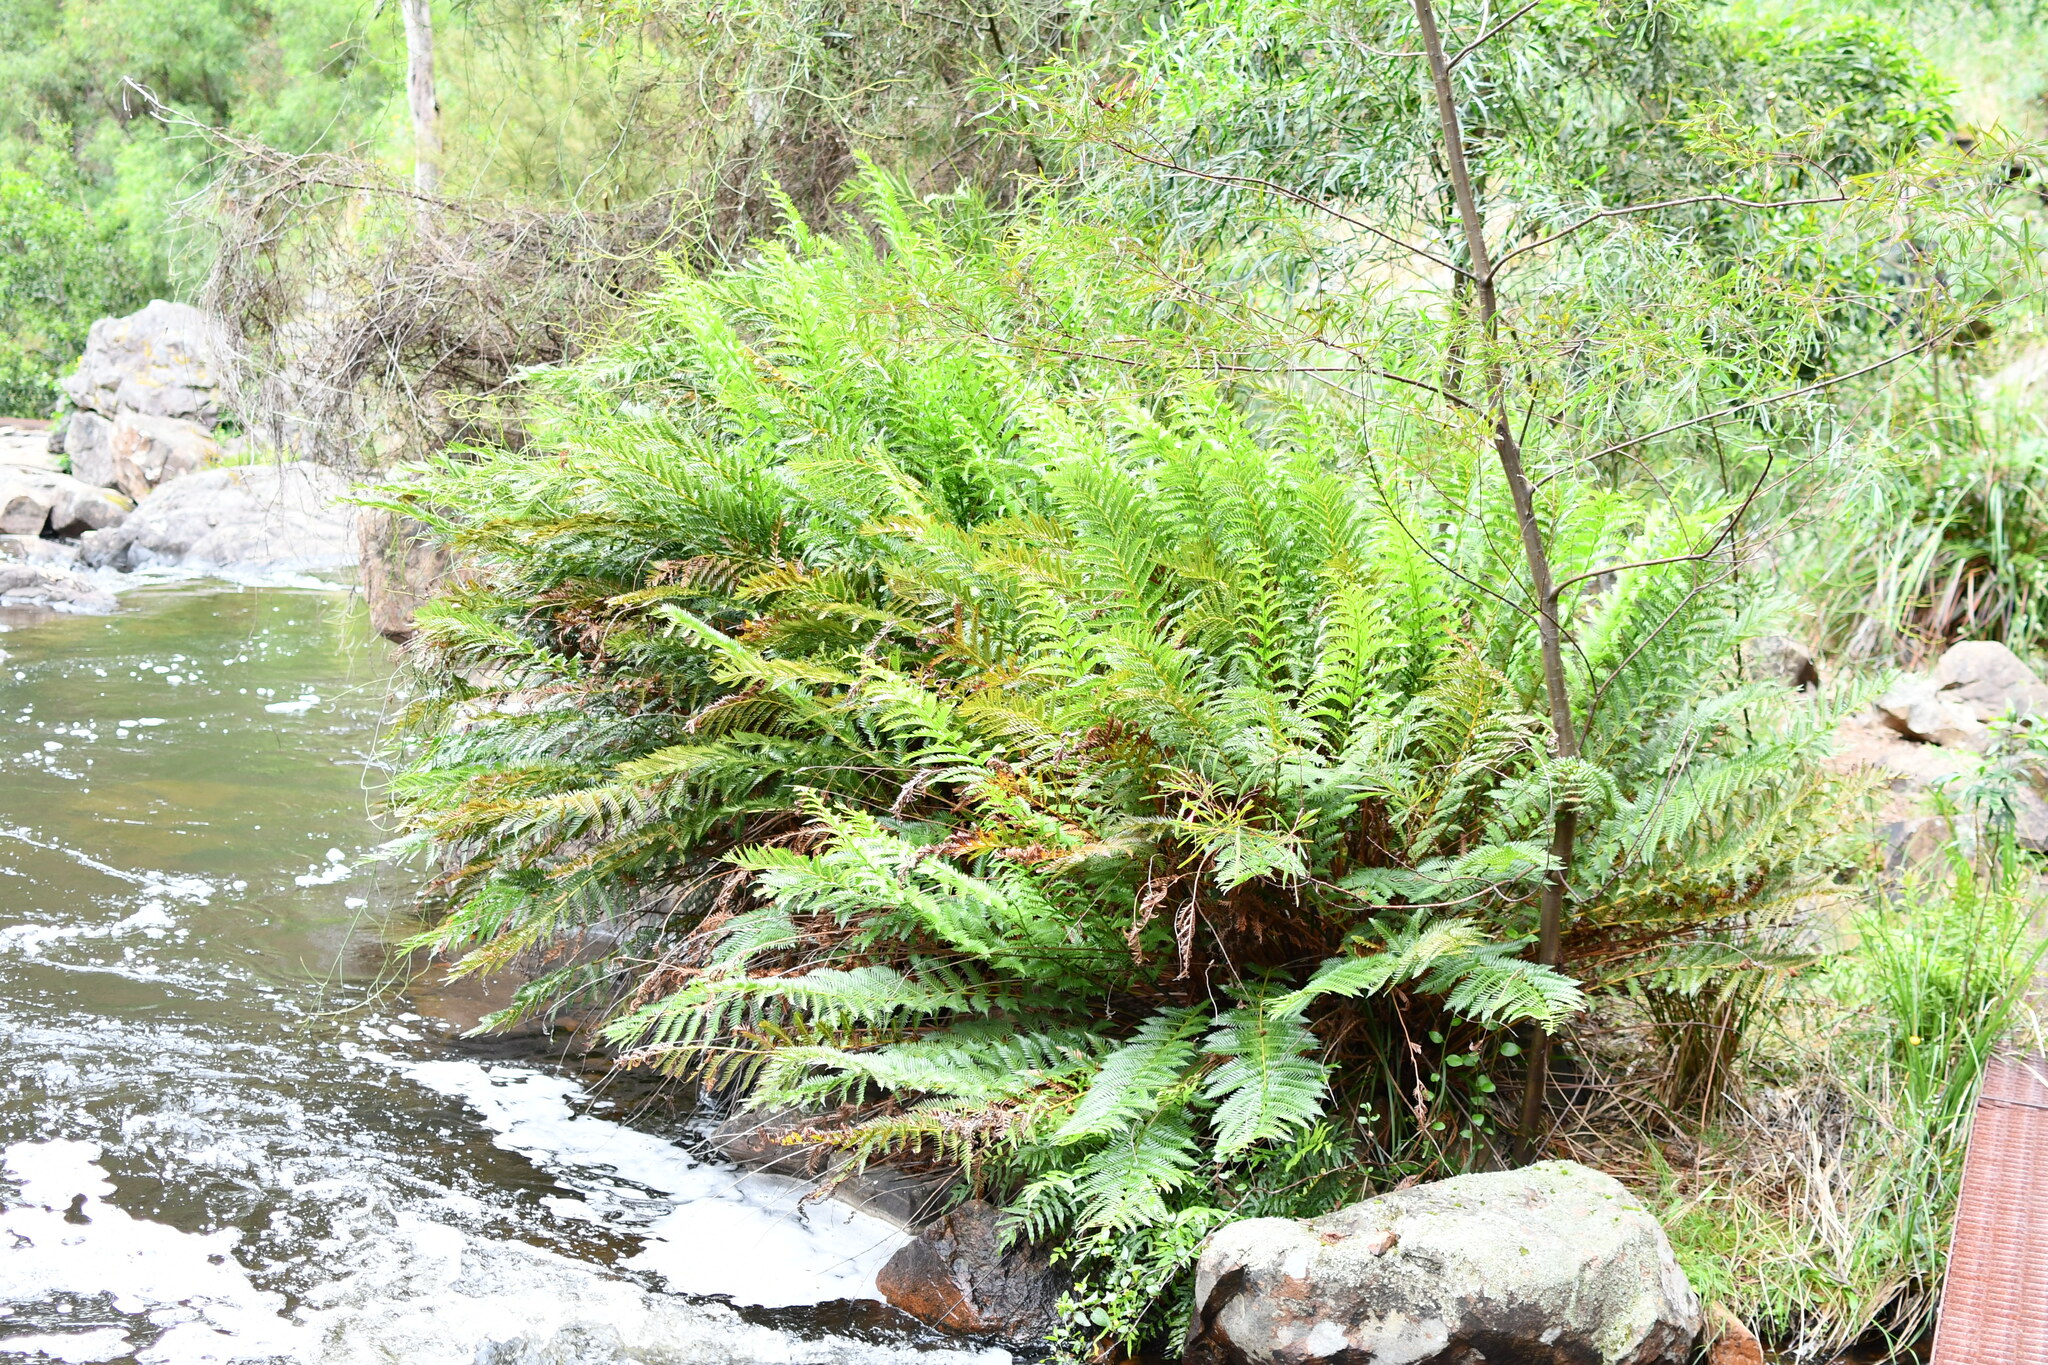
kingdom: Plantae
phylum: Tracheophyta
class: Polypodiopsida
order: Osmundales
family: Osmundaceae
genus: Todea
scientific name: Todea barbara
